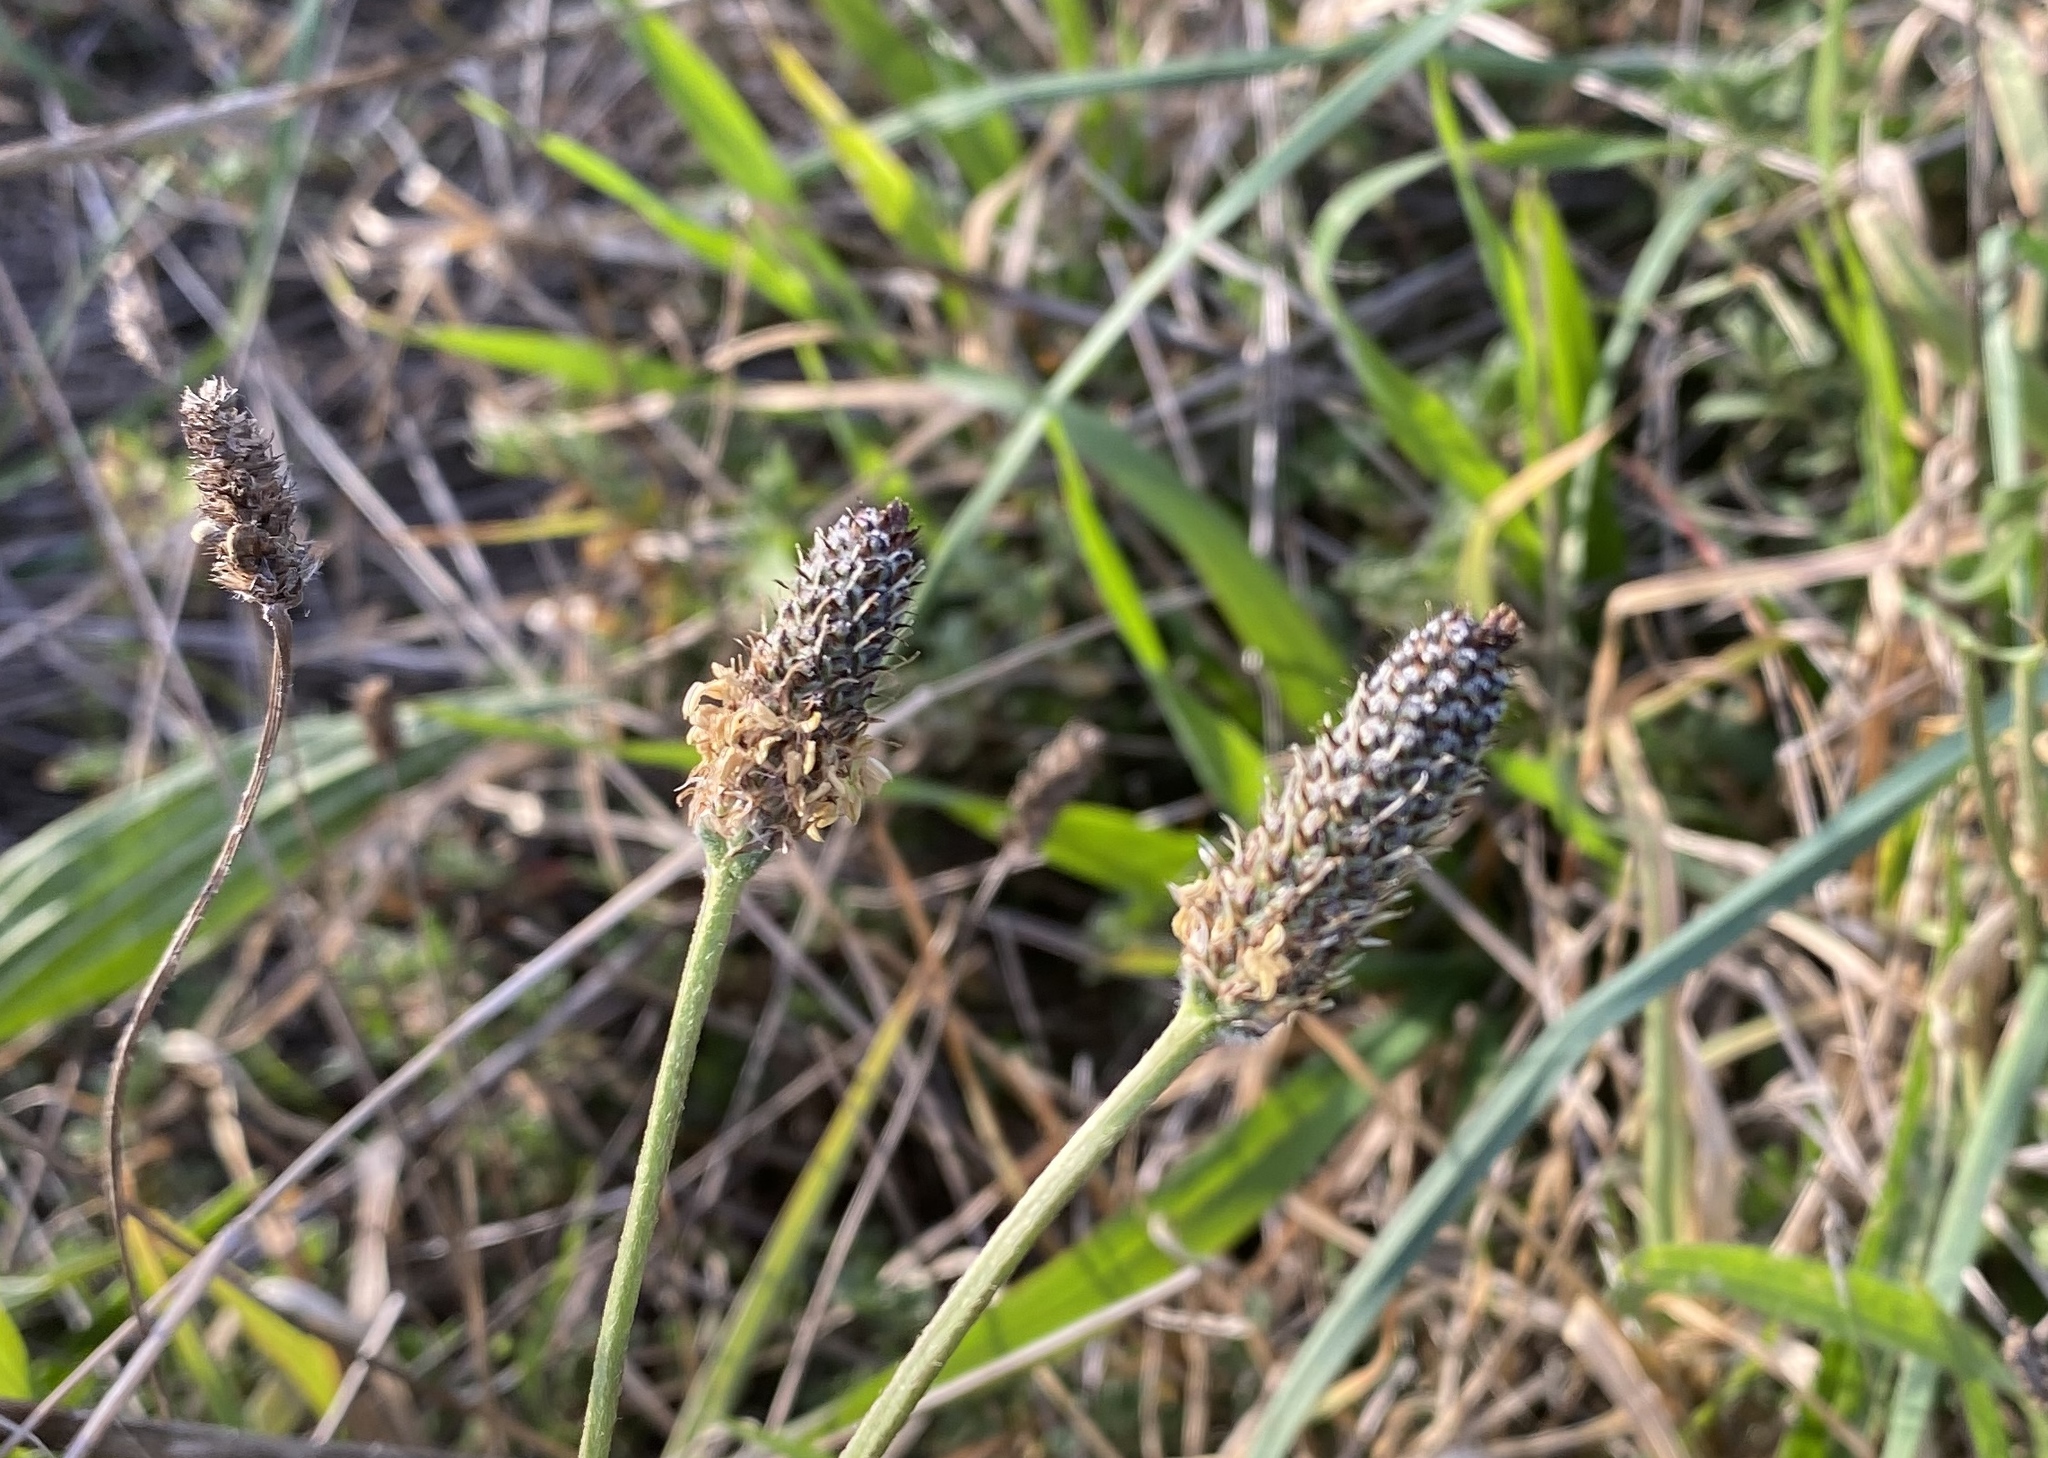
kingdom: Plantae
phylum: Tracheophyta
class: Magnoliopsida
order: Lamiales
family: Plantaginaceae
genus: Plantago
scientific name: Plantago lanceolata
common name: Ribwort plantain
